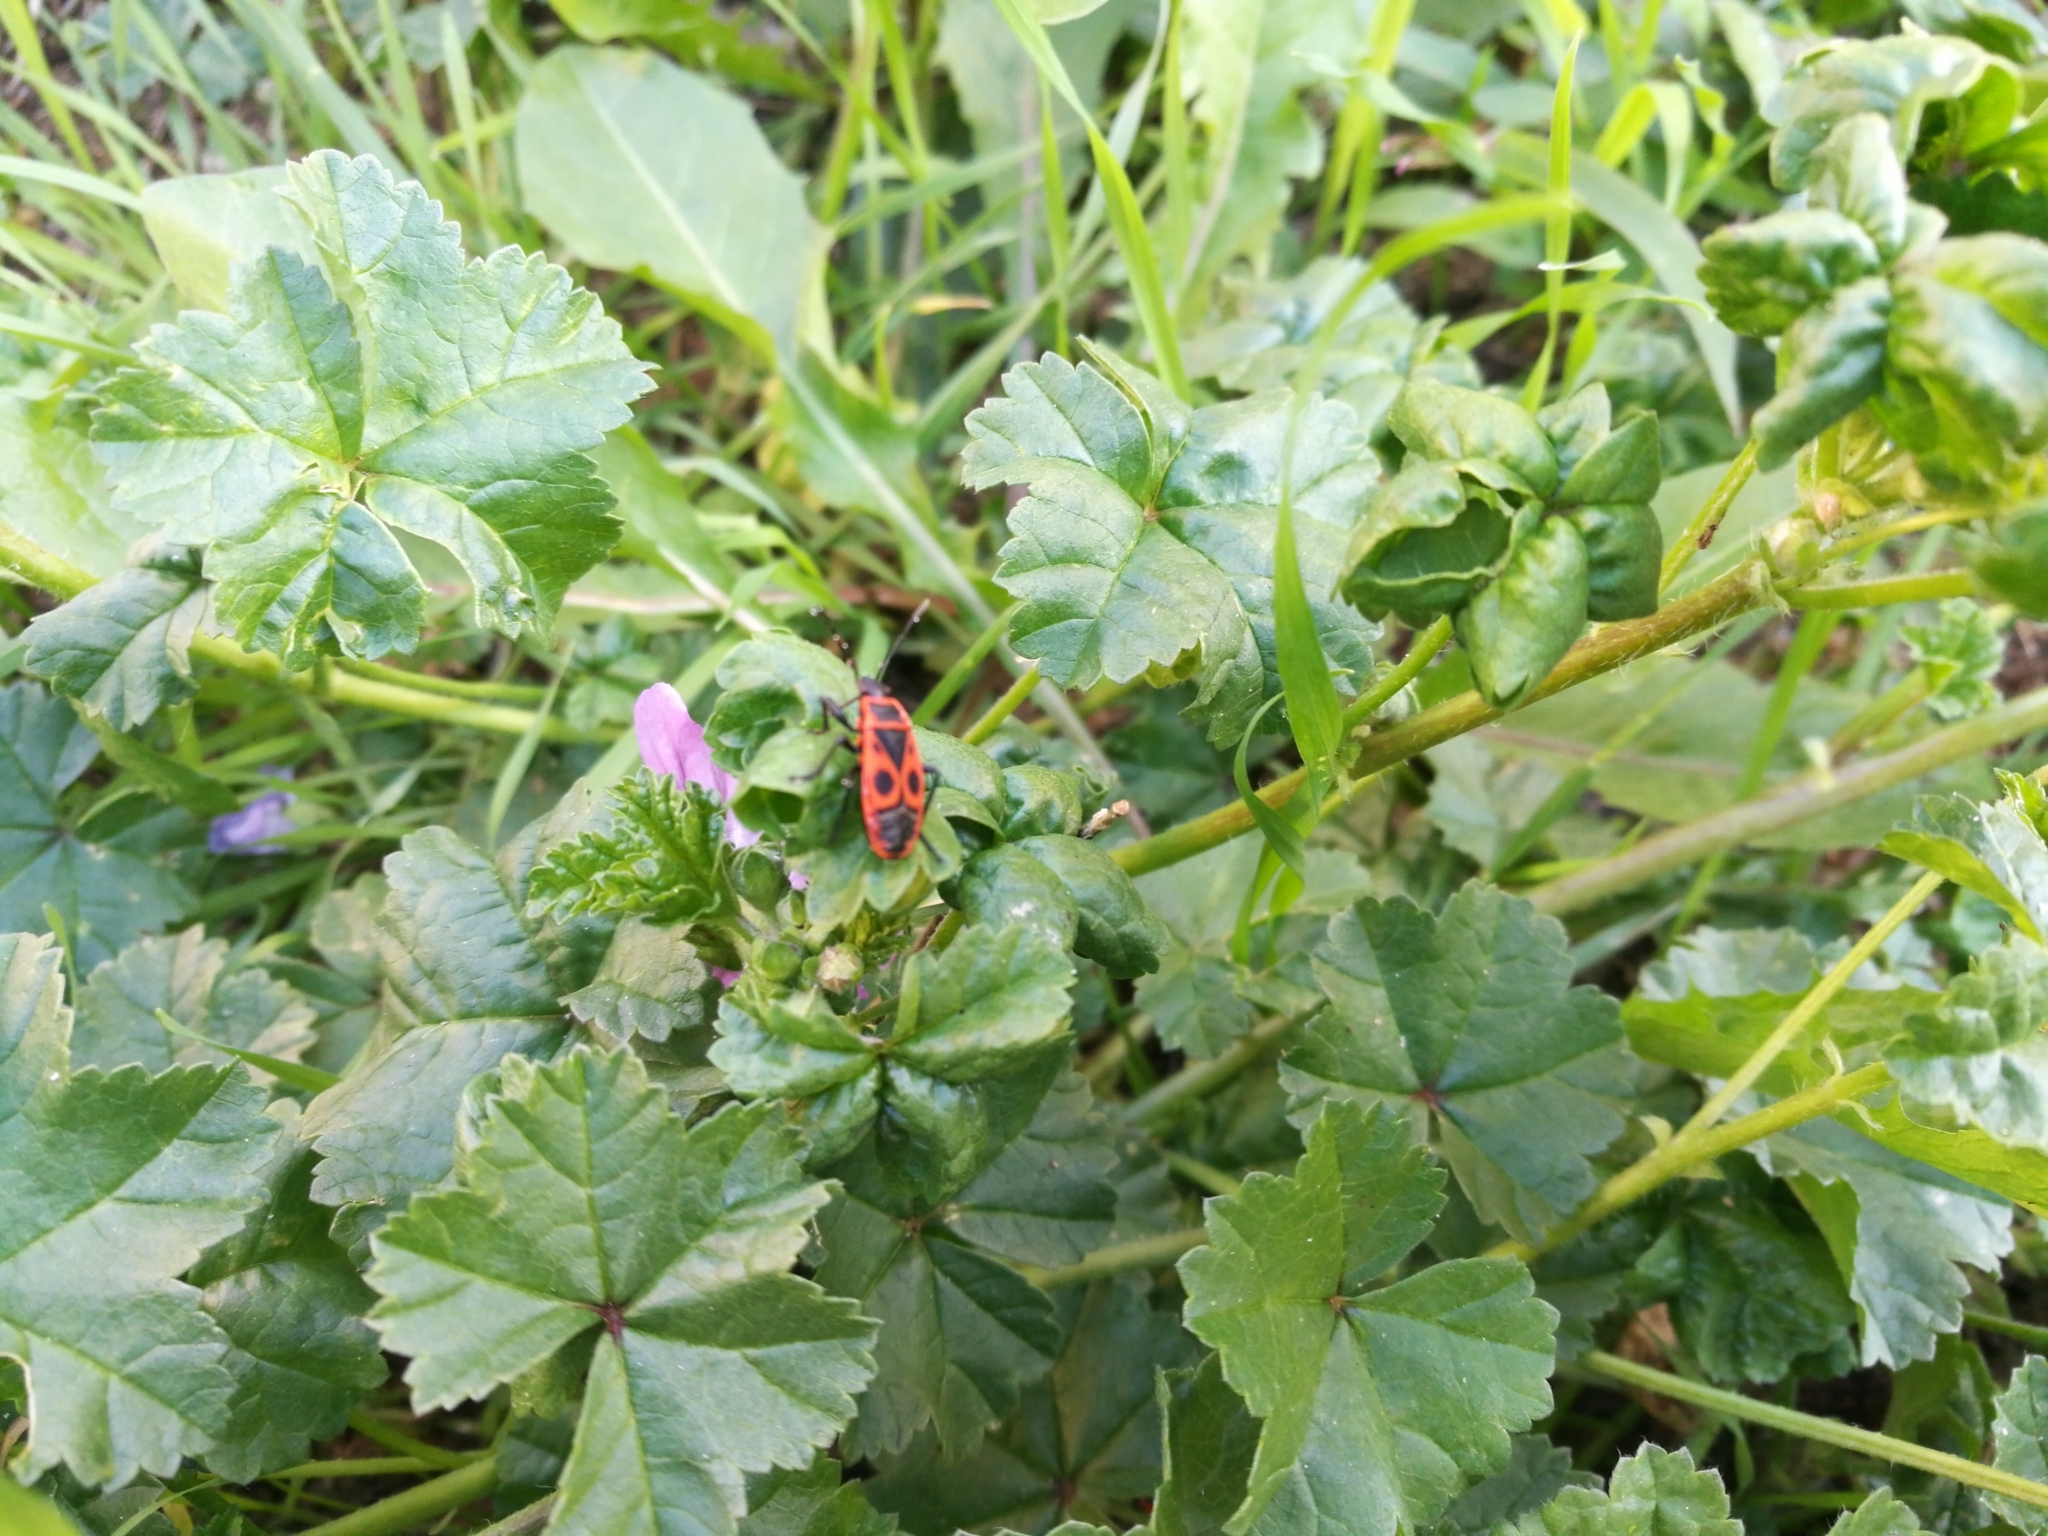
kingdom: Animalia
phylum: Arthropoda
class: Insecta
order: Hemiptera
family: Pyrrhocoridae
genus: Pyrrhocoris
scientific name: Pyrrhocoris apterus
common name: Firebug
